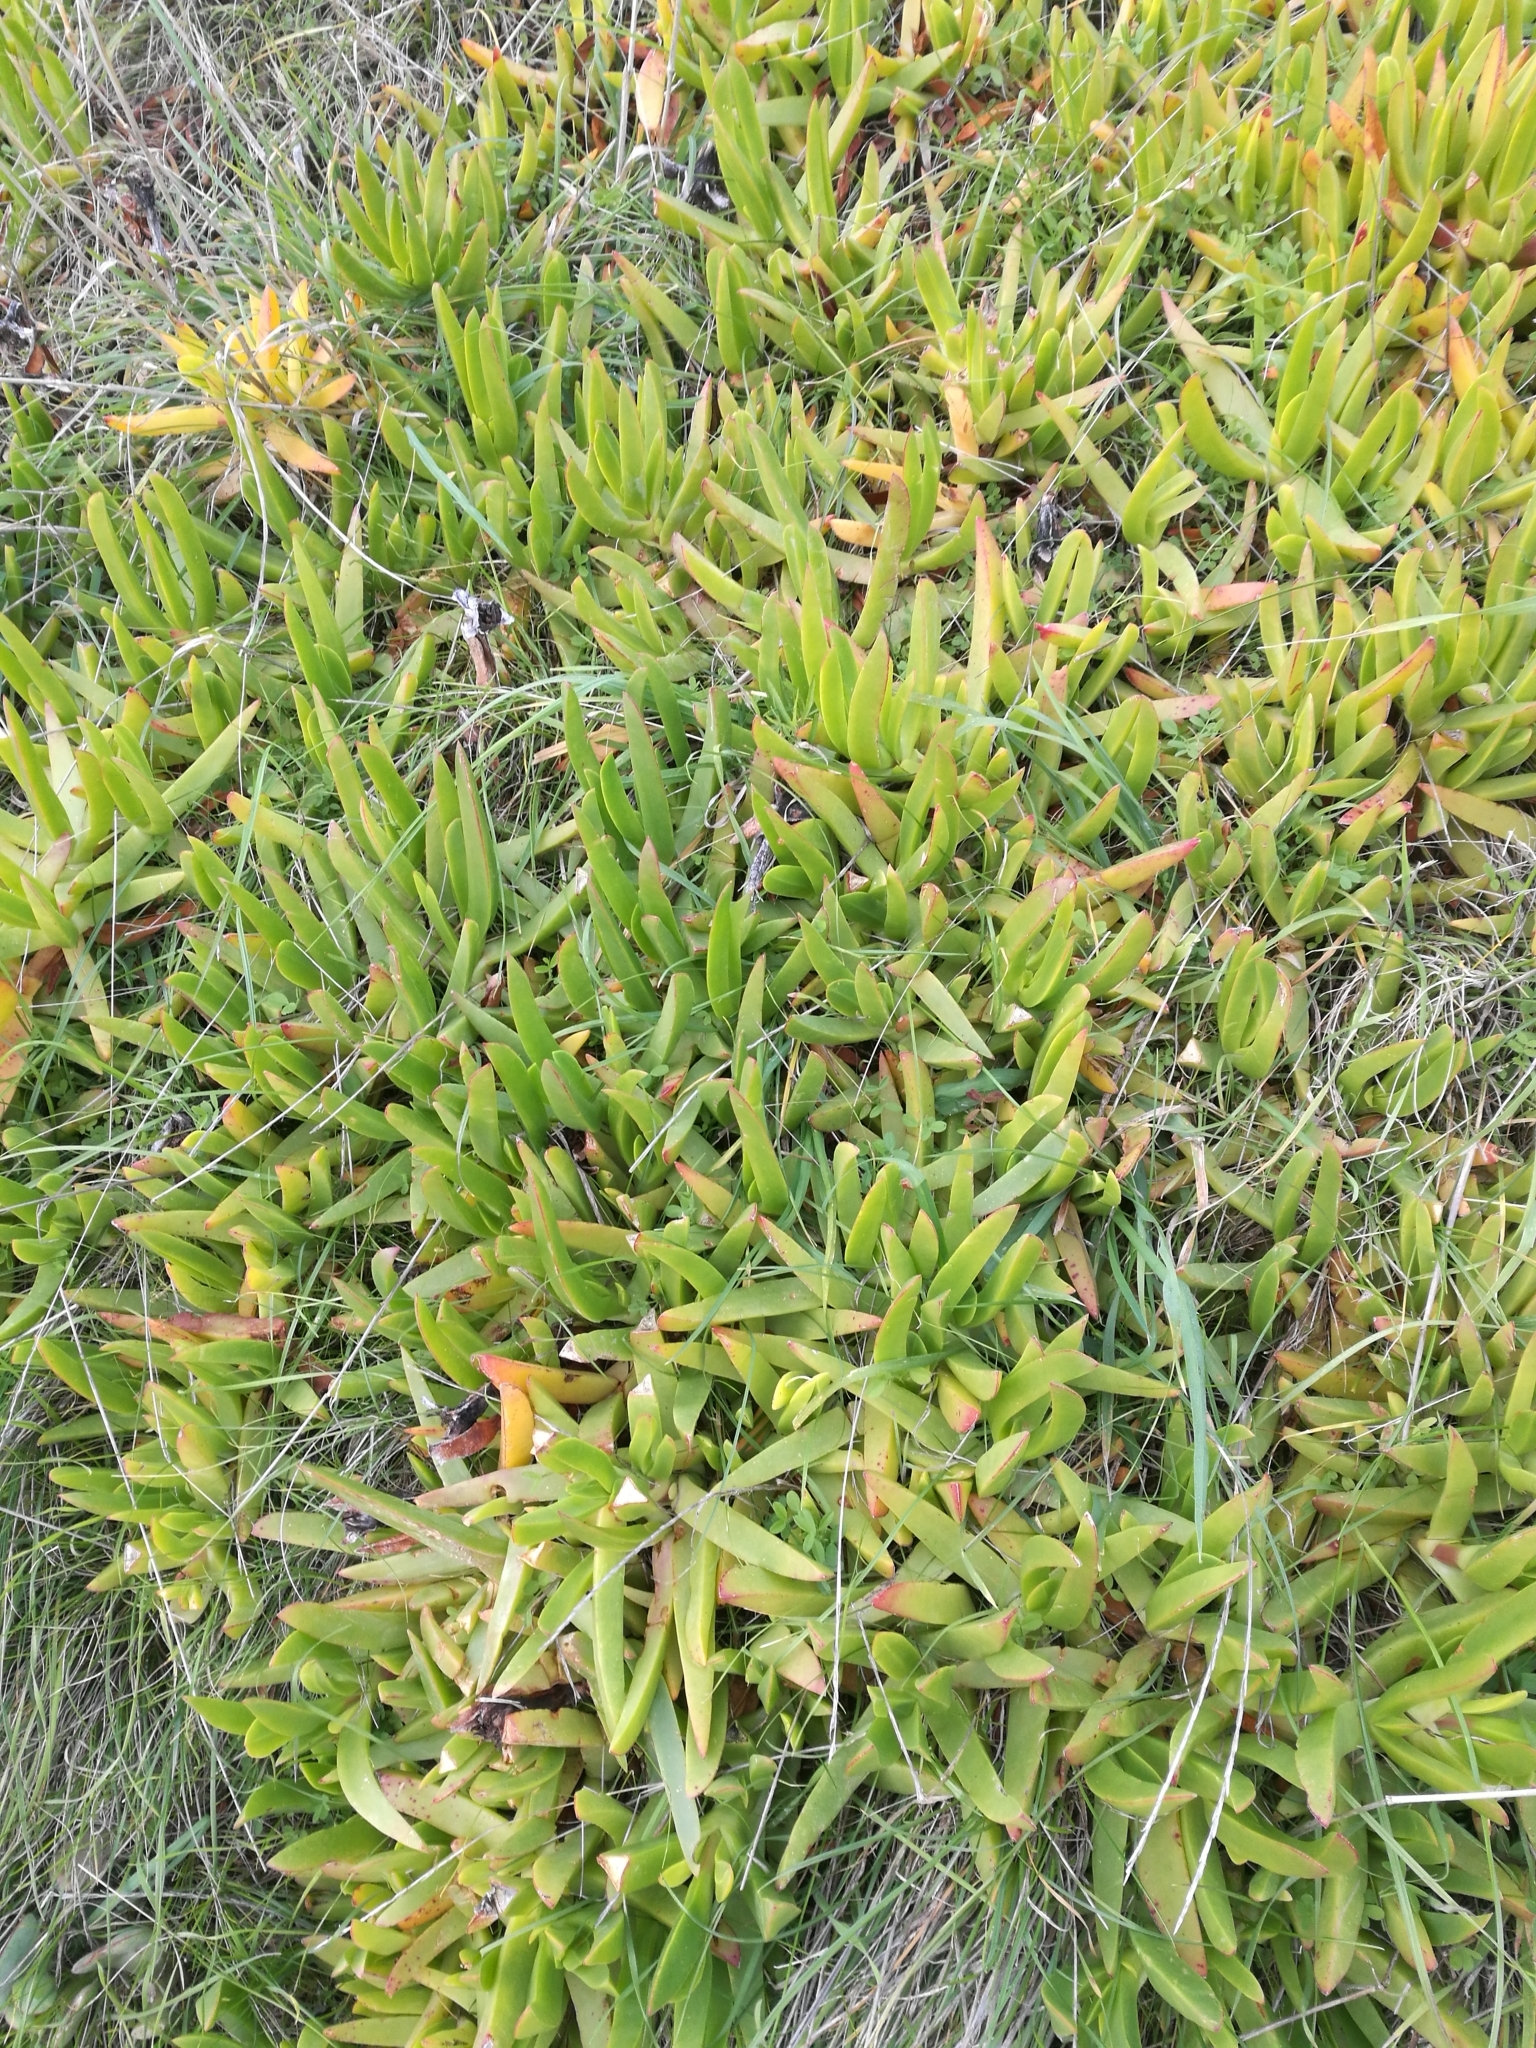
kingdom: Plantae
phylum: Tracheophyta
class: Magnoliopsida
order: Caryophyllales
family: Aizoaceae
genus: Carpobrotus
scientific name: Carpobrotus edulis
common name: Hottentot-fig
